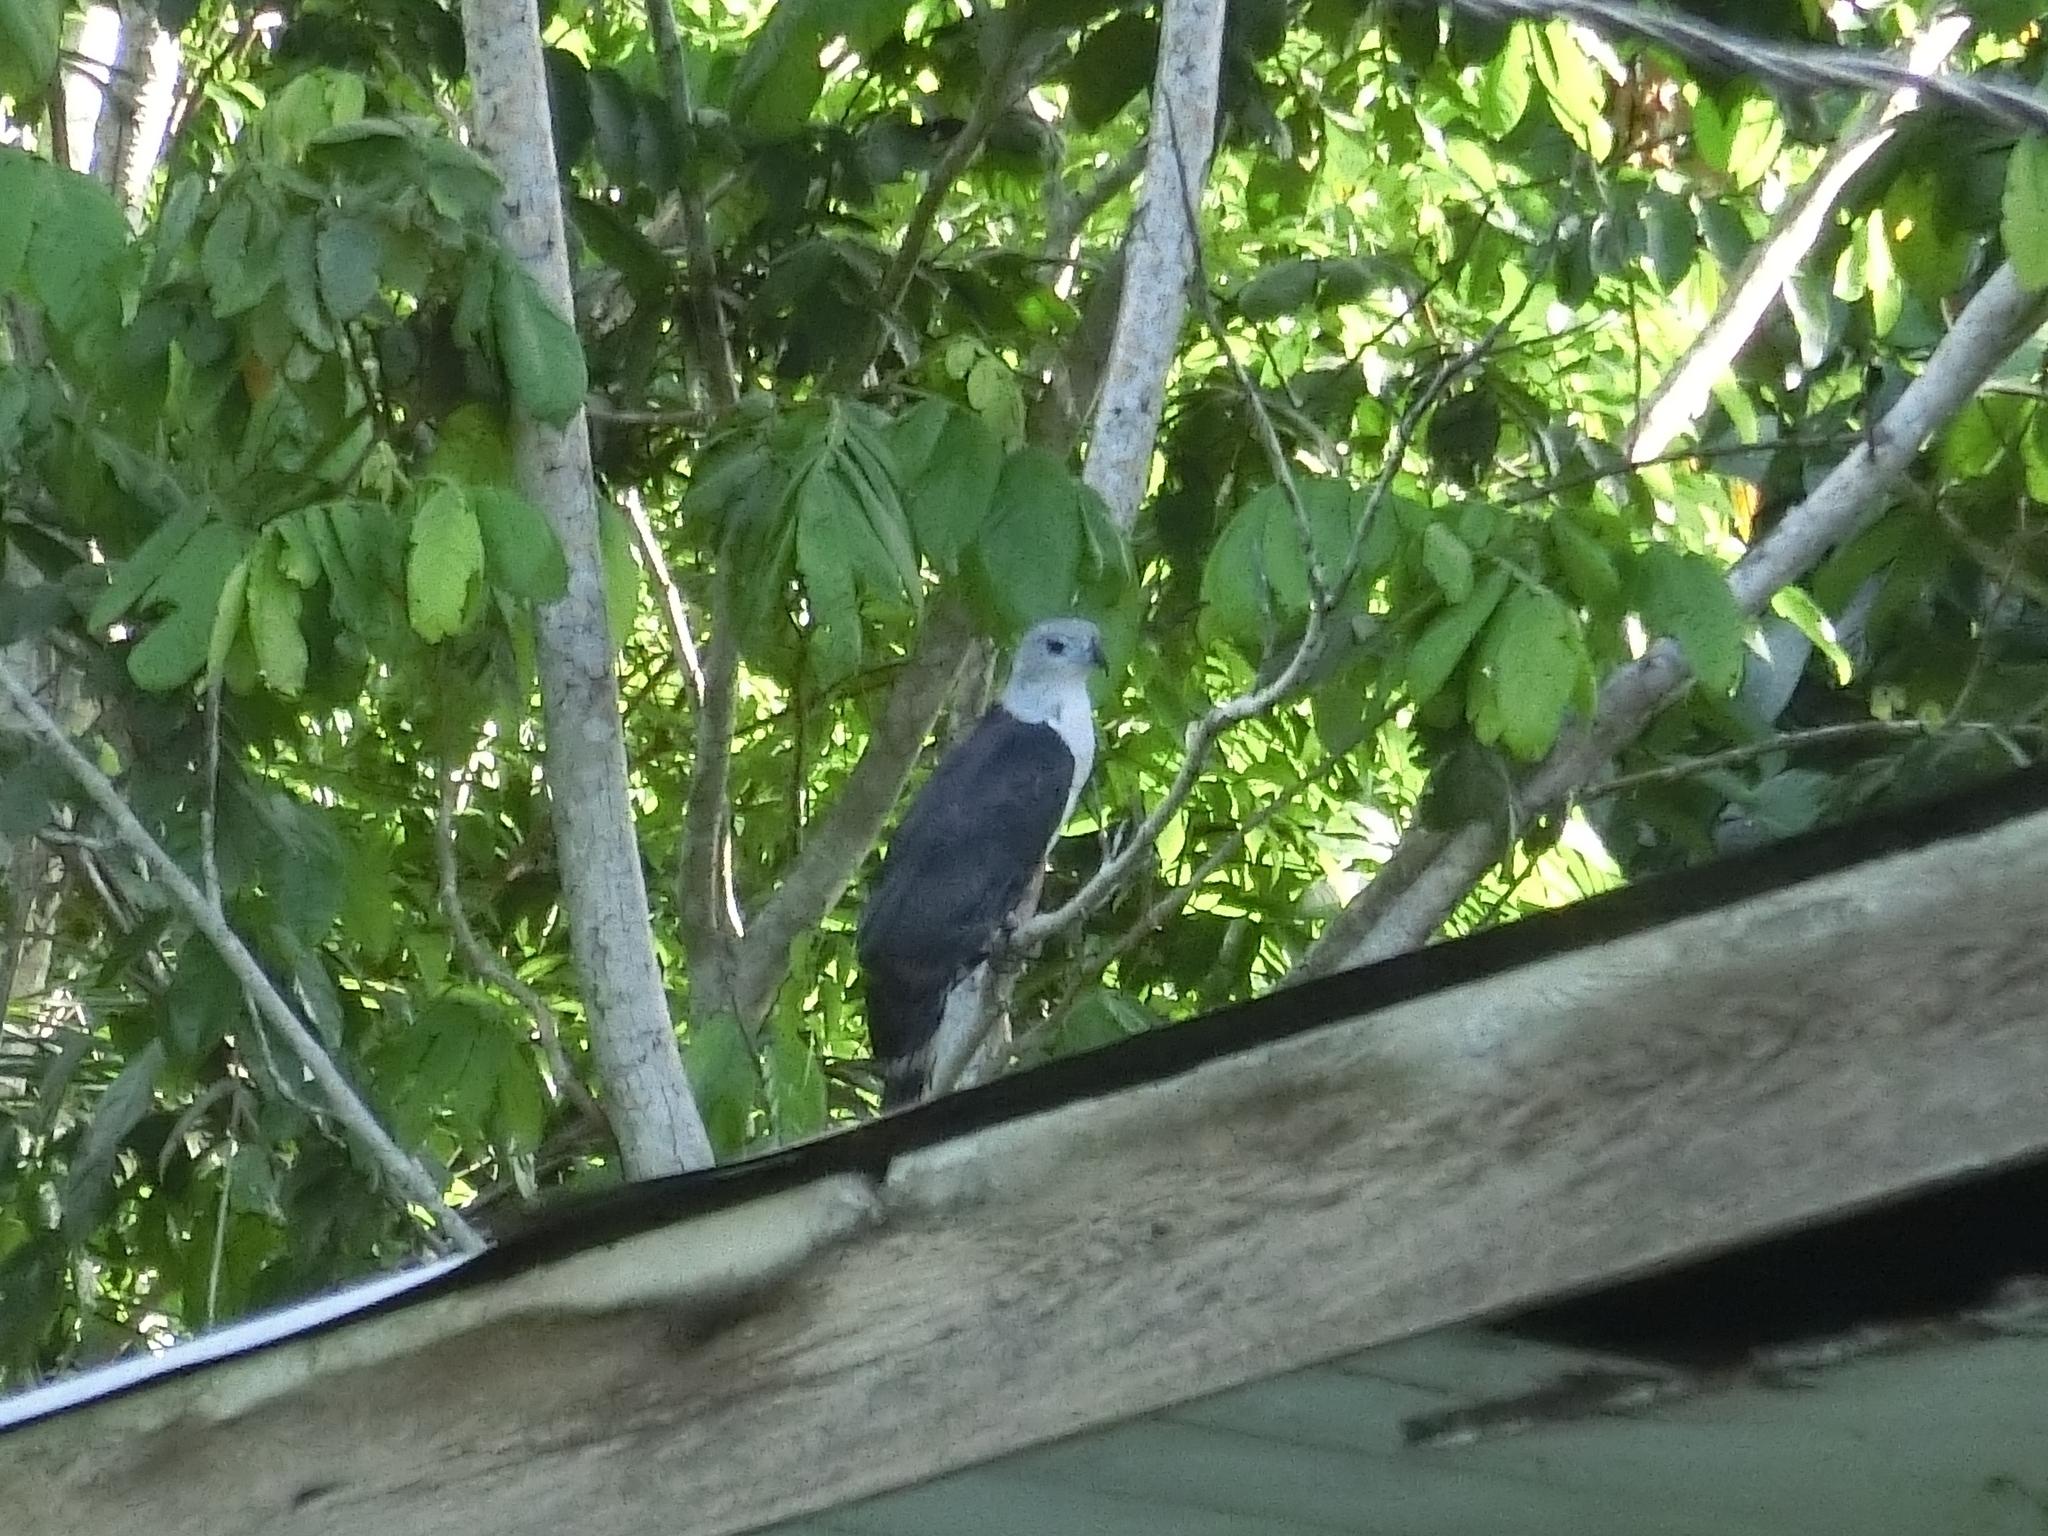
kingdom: Animalia
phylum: Chordata
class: Aves
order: Accipitriformes
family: Accipitridae
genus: Leptodon
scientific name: Leptodon cayanensis
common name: Gray-headed kite
